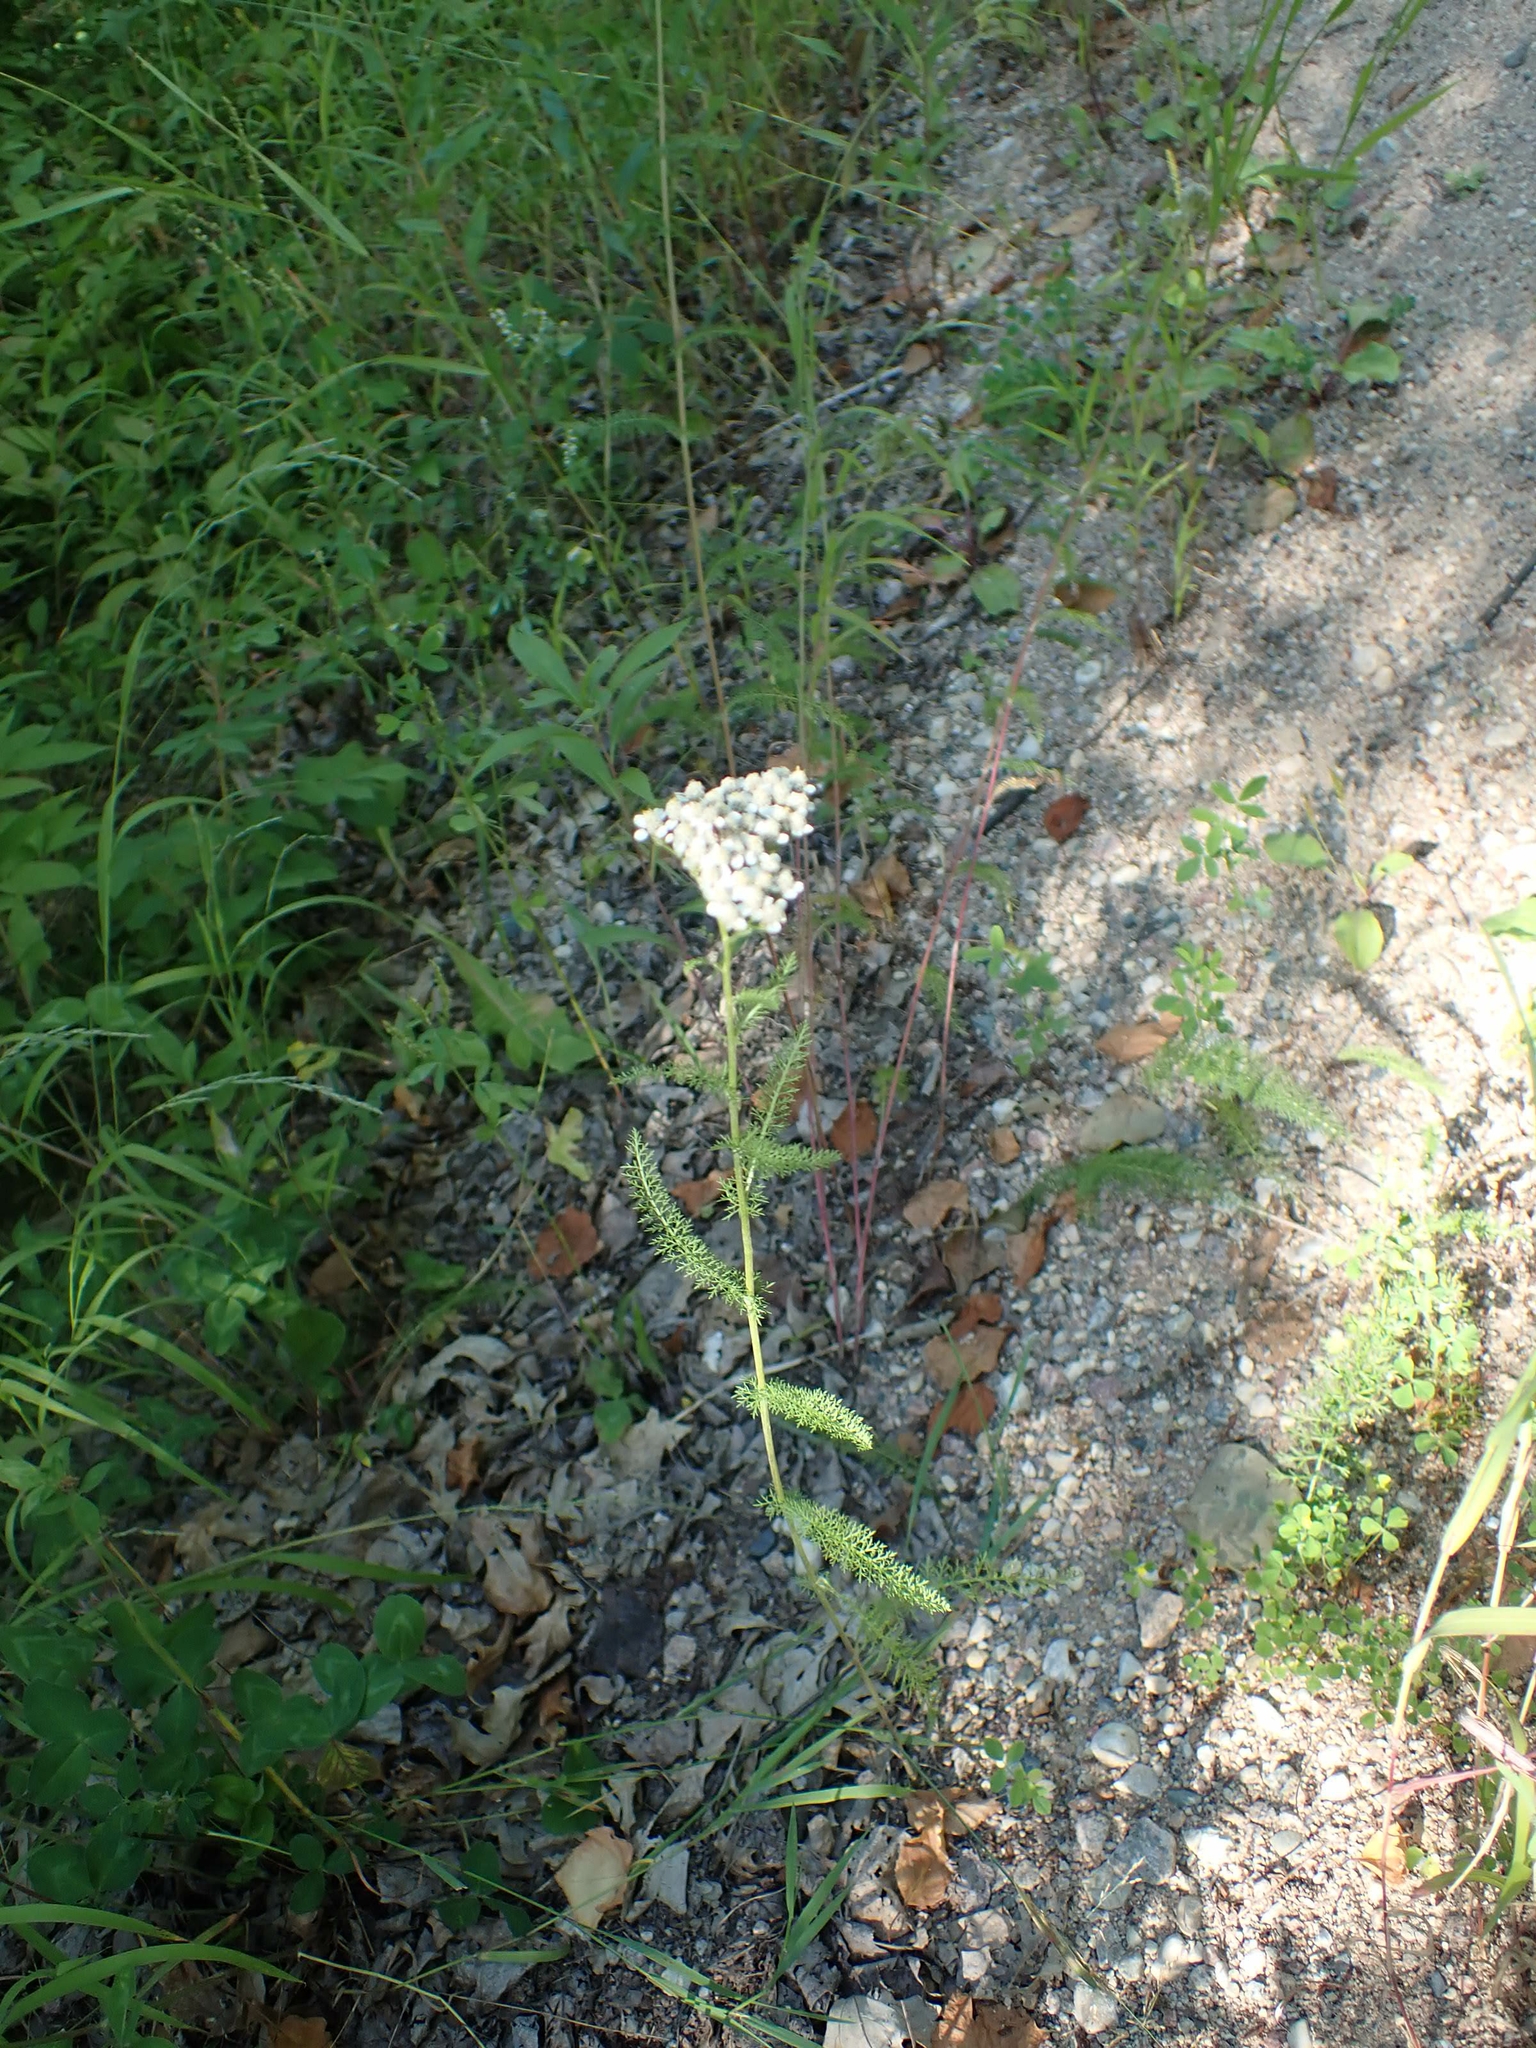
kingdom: Plantae
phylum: Tracheophyta
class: Magnoliopsida
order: Asterales
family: Asteraceae
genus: Achillea
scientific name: Achillea millefolium
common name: Yarrow
